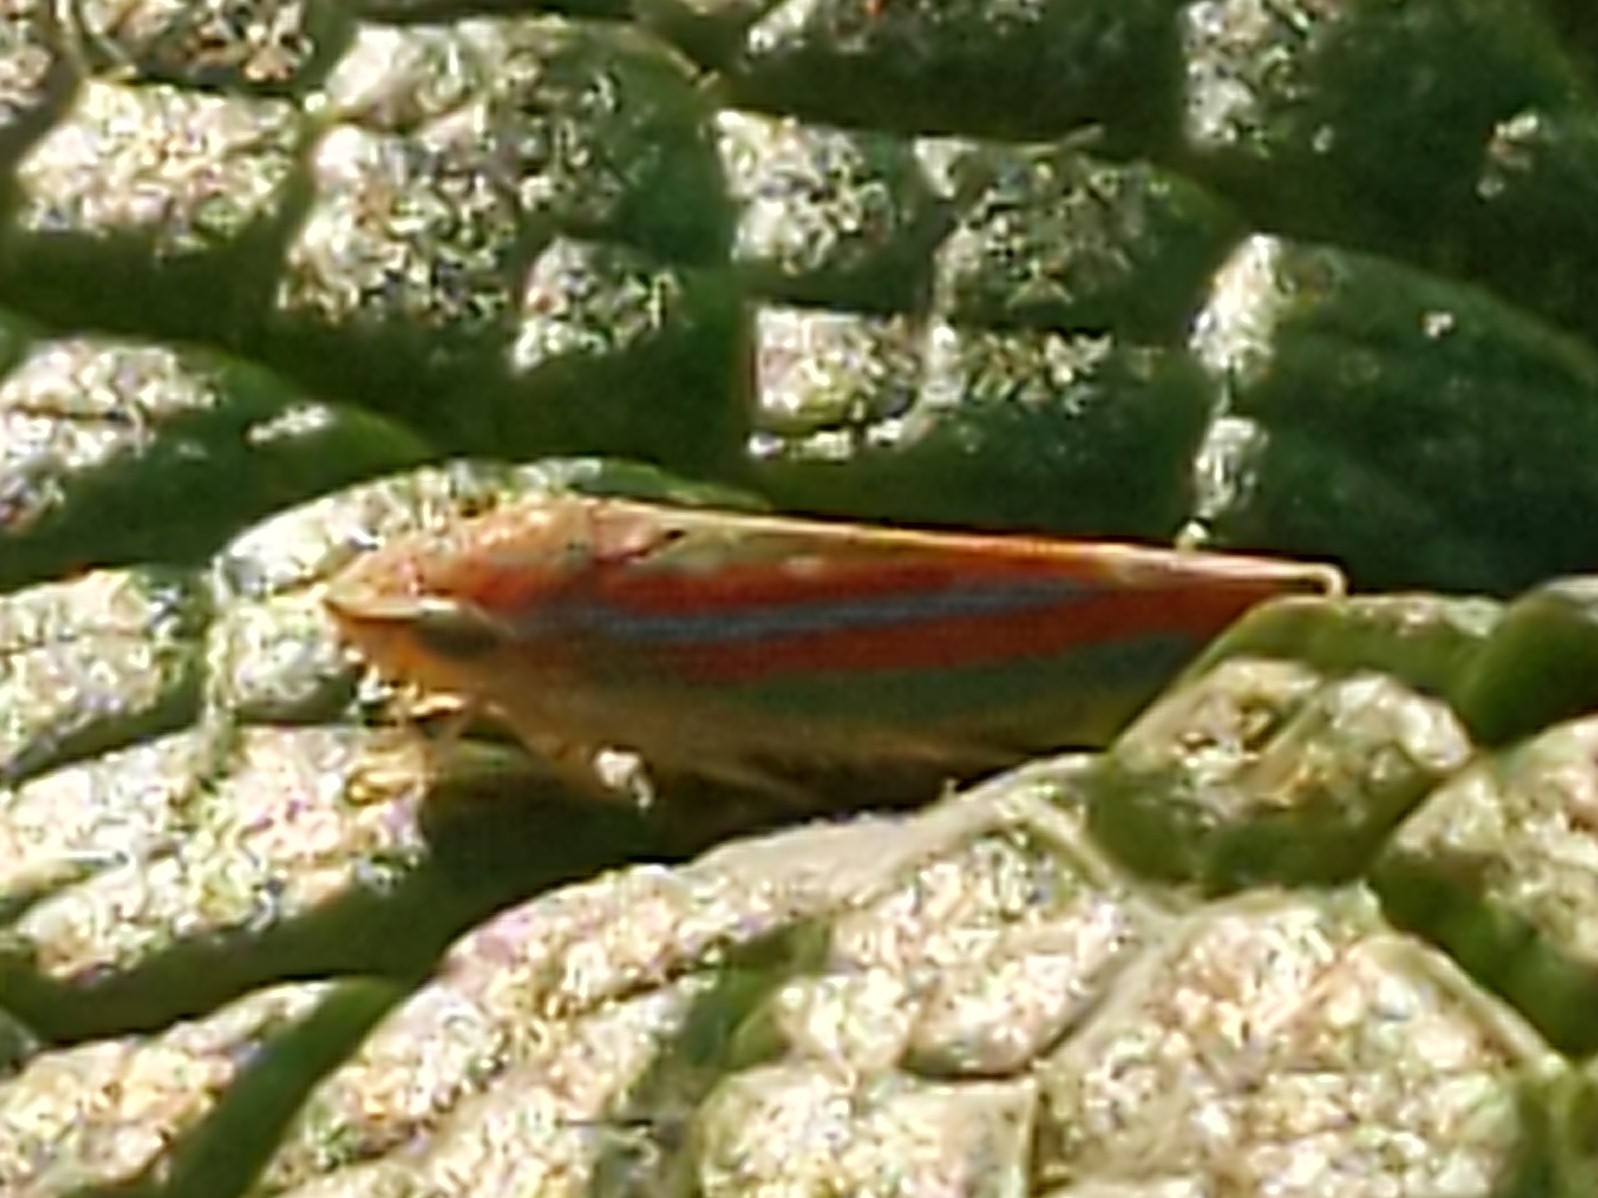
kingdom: Animalia
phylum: Arthropoda
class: Insecta
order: Hemiptera
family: Cicadellidae
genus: Graphocephala
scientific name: Graphocephala versuta
